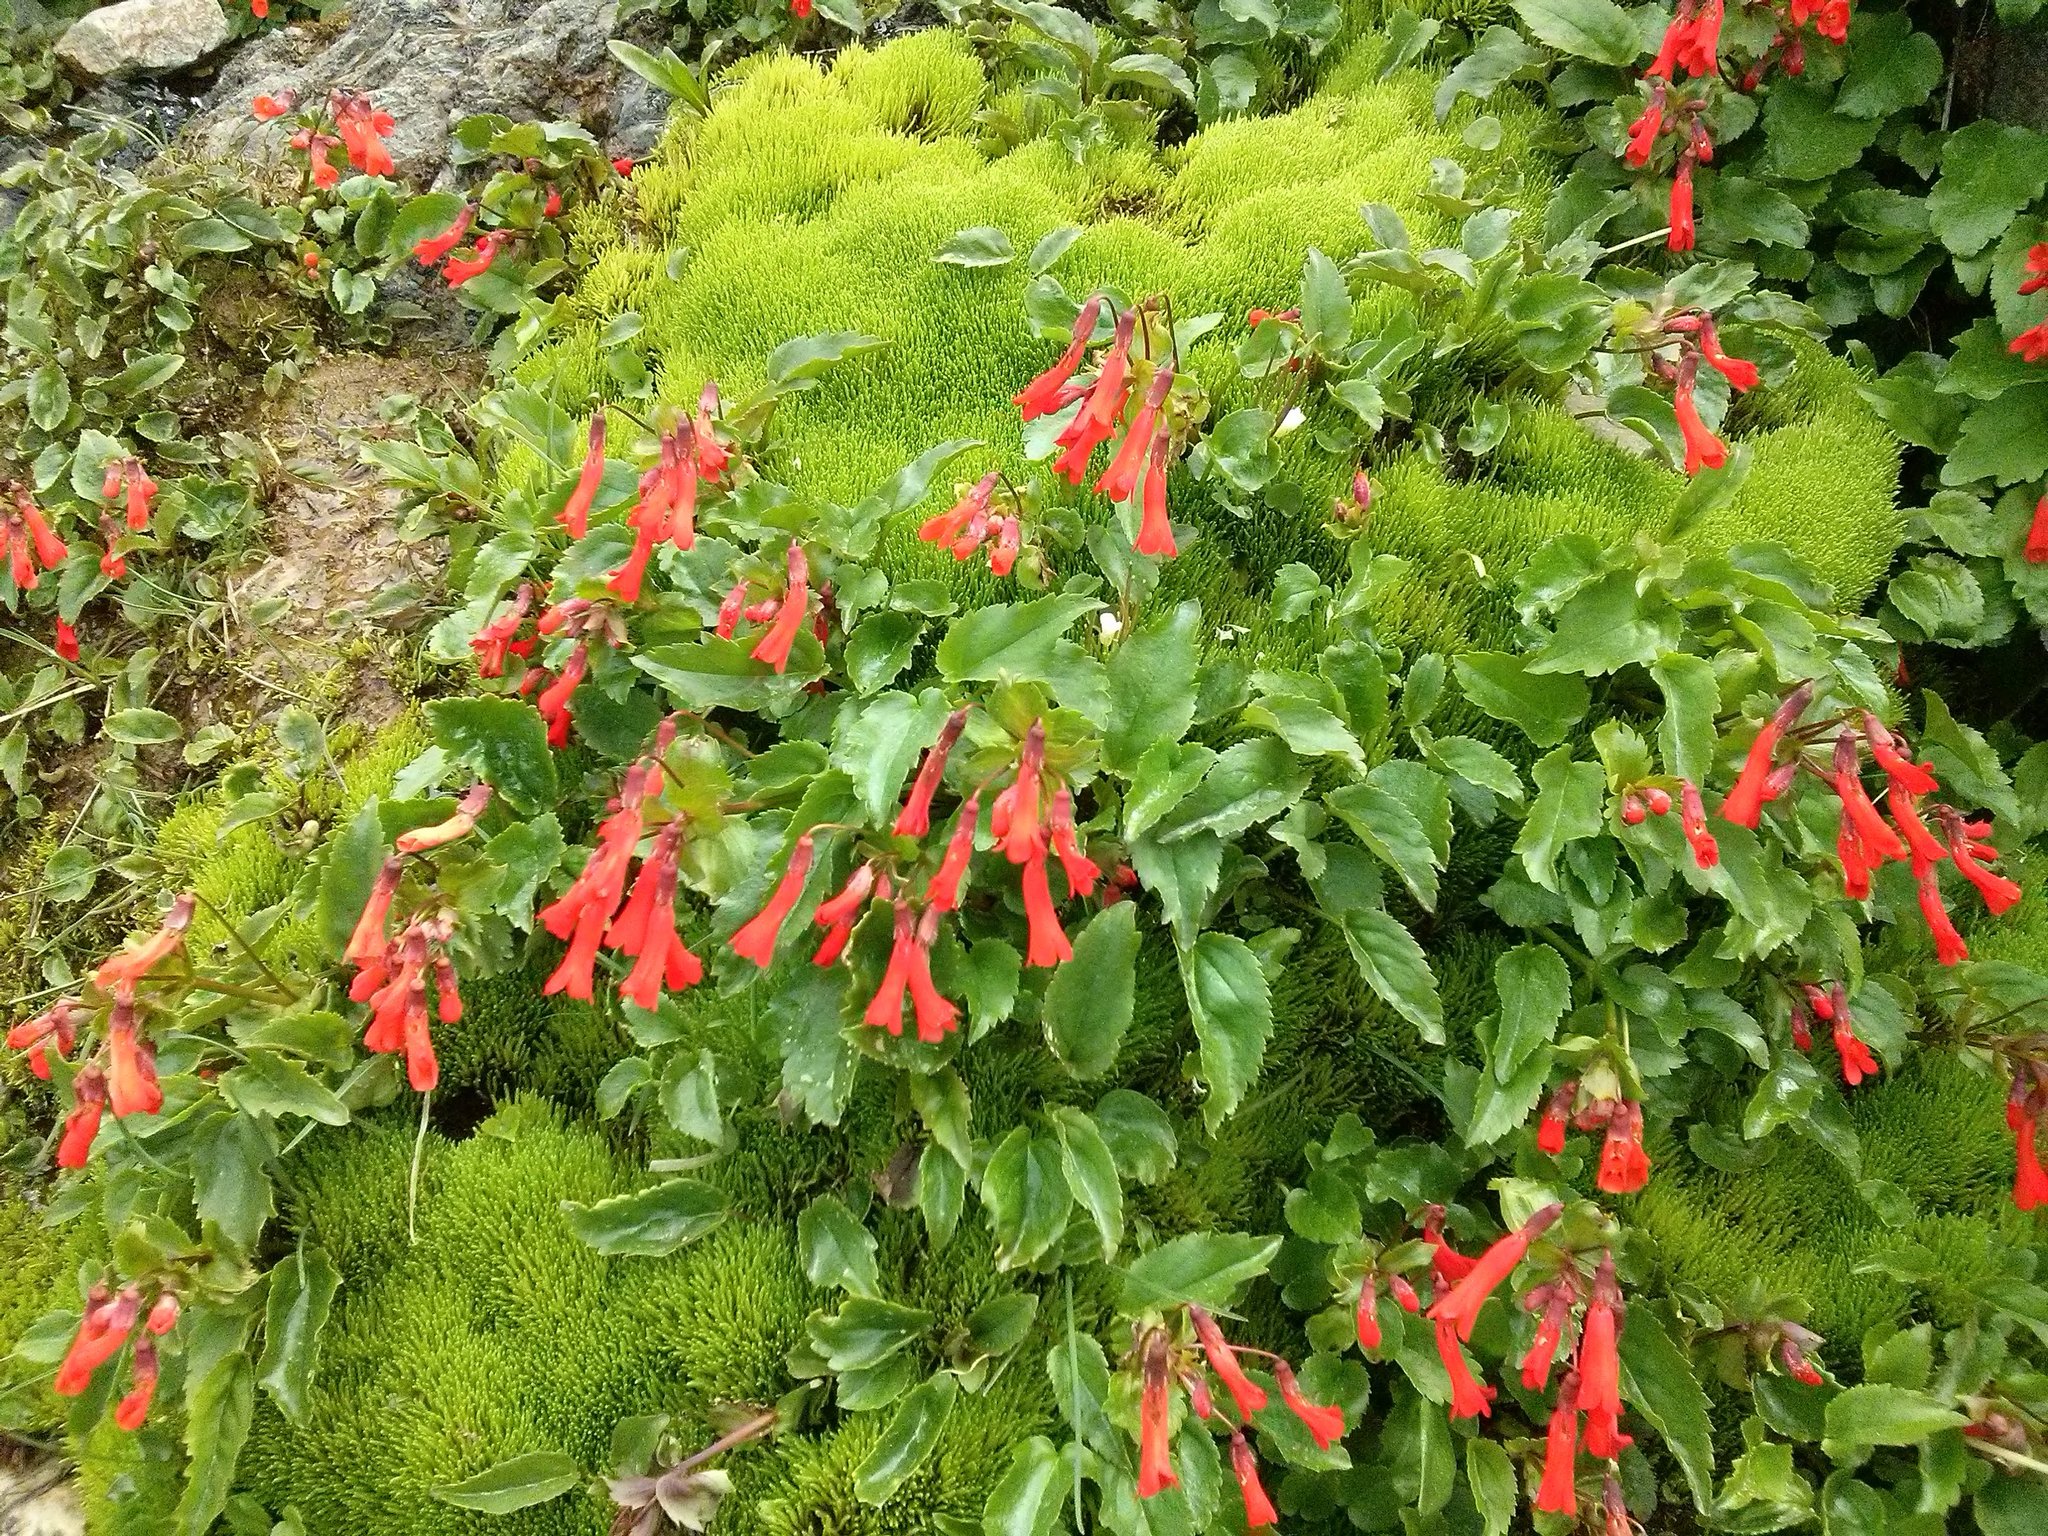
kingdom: Plantae
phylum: Tracheophyta
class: Magnoliopsida
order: Lamiales
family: Plantaginaceae
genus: Ourisia
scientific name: Ourisia ruellioides
